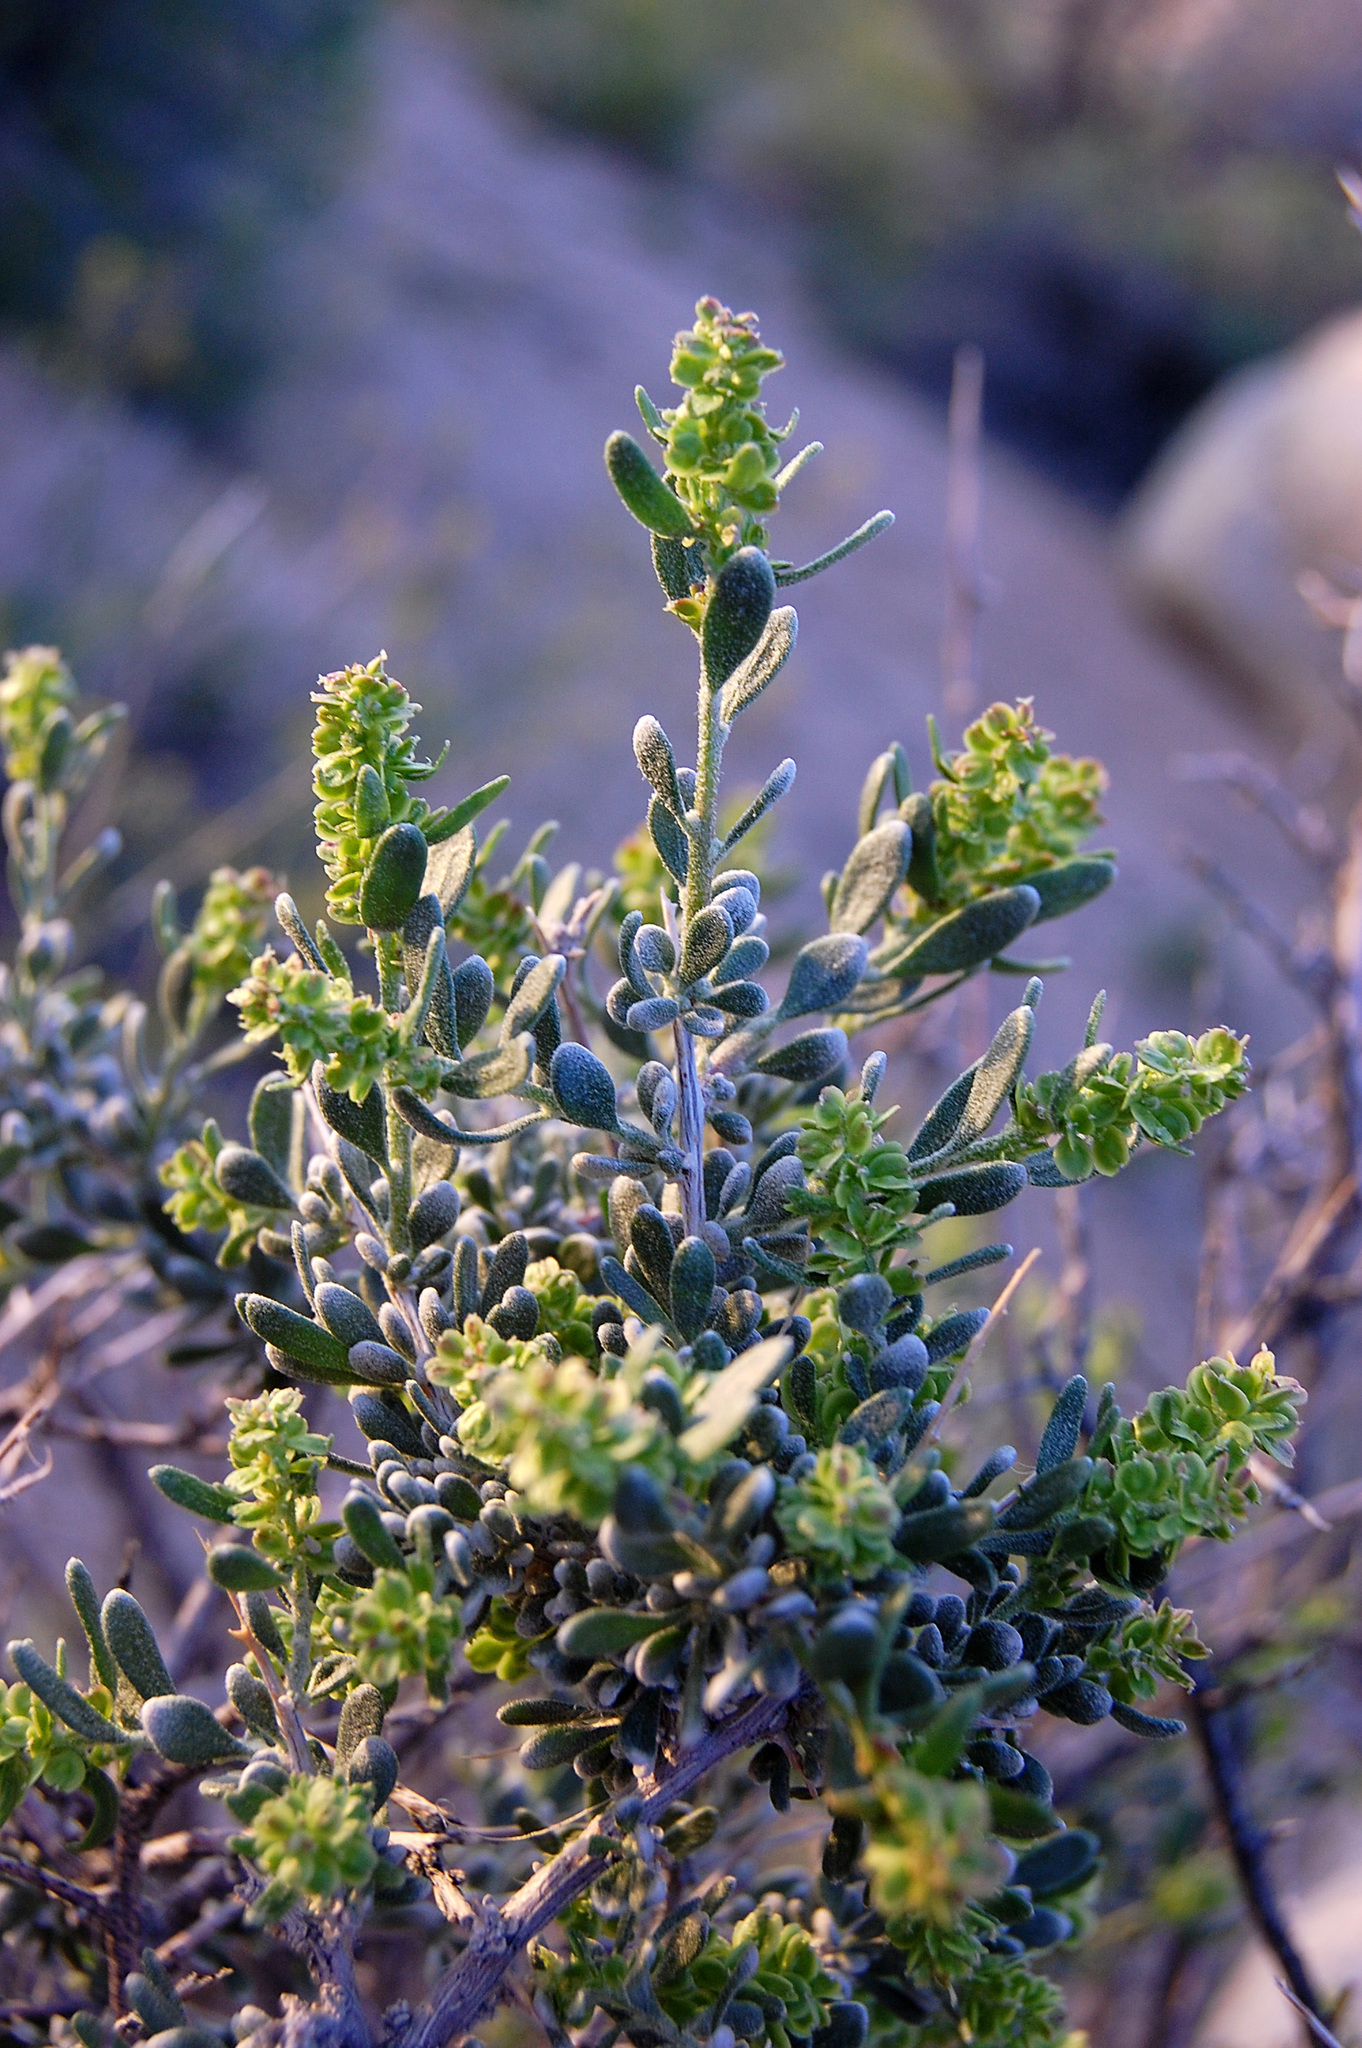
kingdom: Plantae
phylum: Tracheophyta
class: Magnoliopsida
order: Caryophyllales
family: Amaranthaceae
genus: Grayia
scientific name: Grayia spinosa
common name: Spiny hopsage
